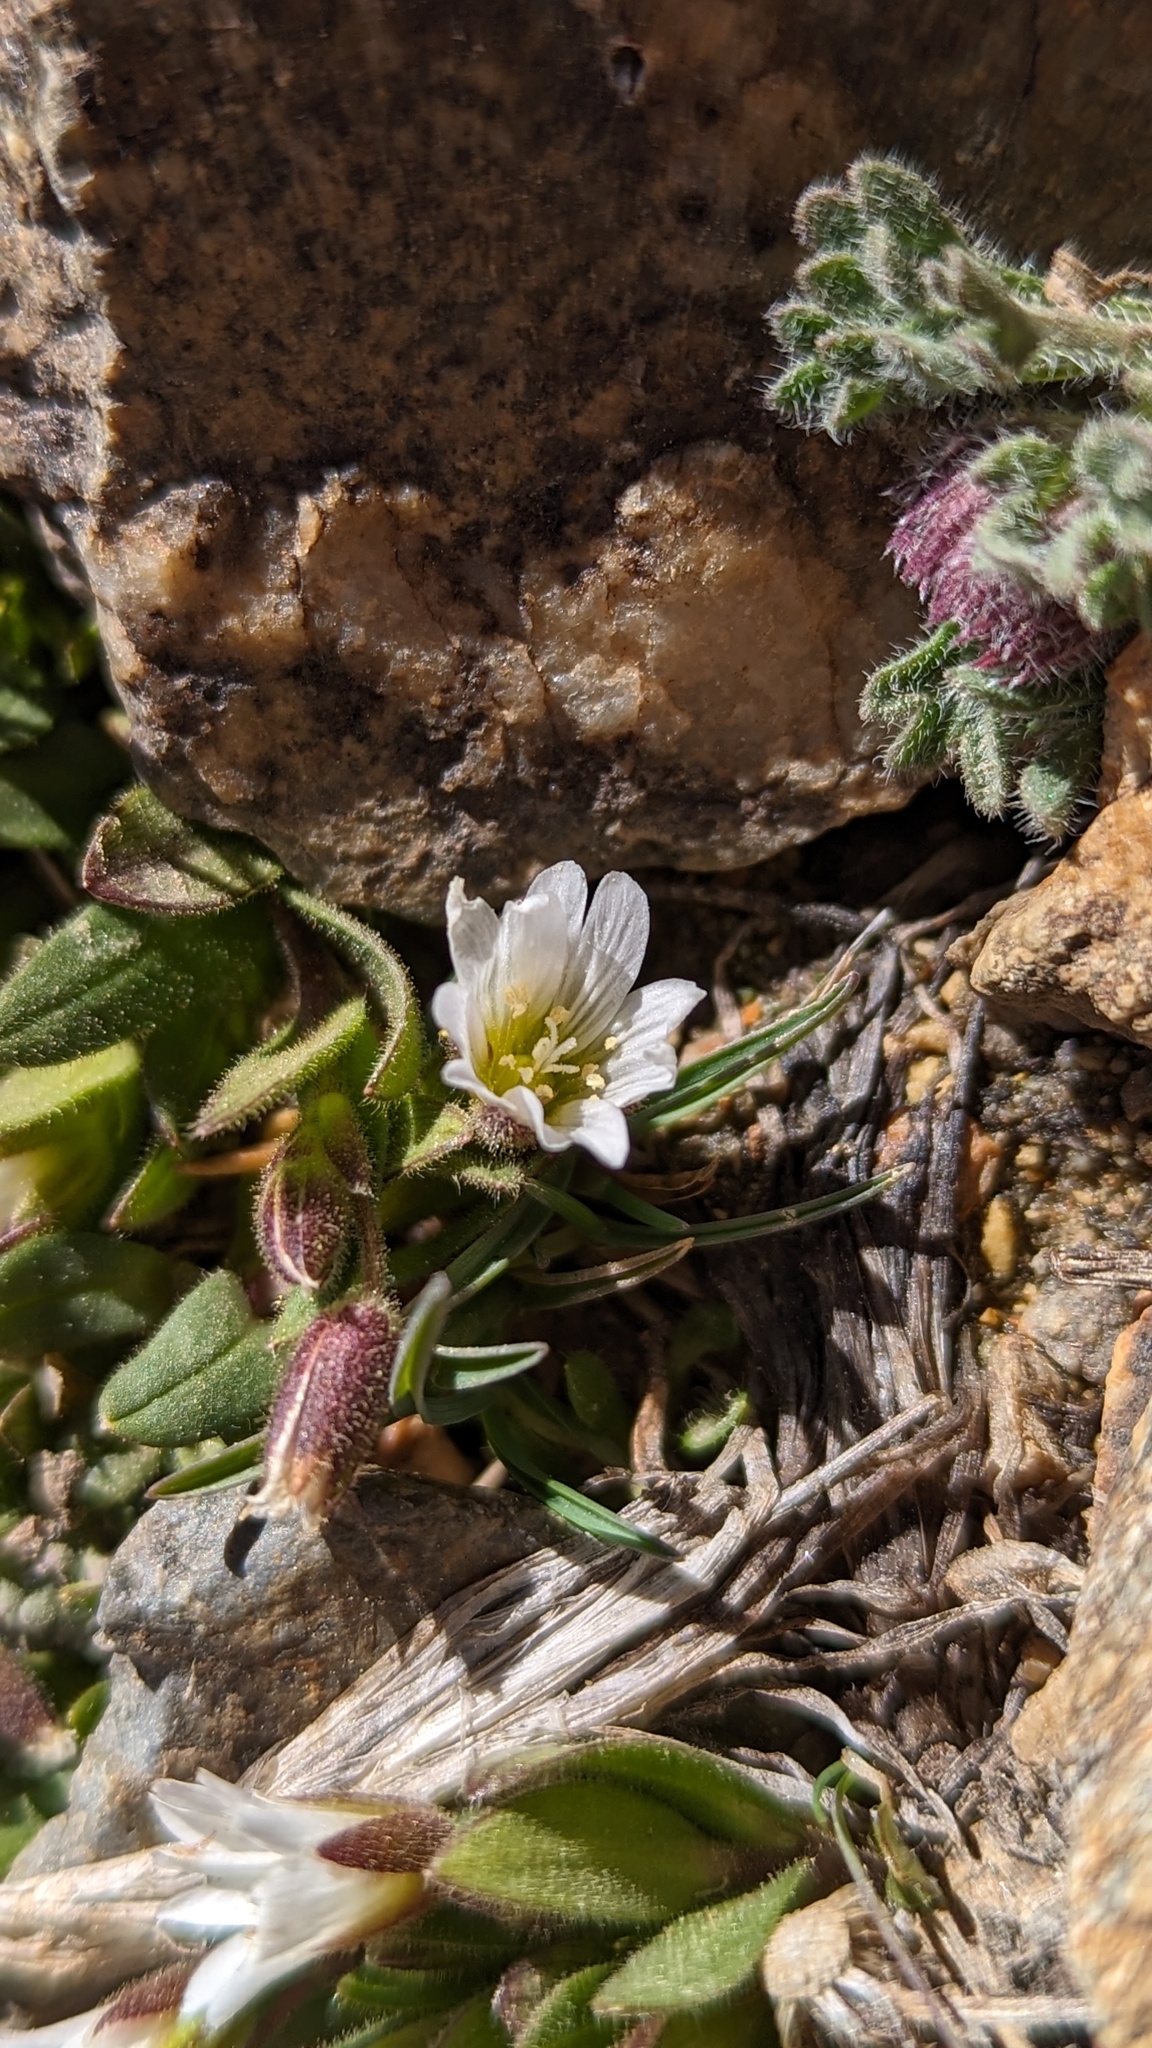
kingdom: Plantae
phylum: Tracheophyta
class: Magnoliopsida
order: Caryophyllales
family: Caryophyllaceae
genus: Cerastium
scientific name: Cerastium beeringianum
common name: Bering mouse-ear chickweed
